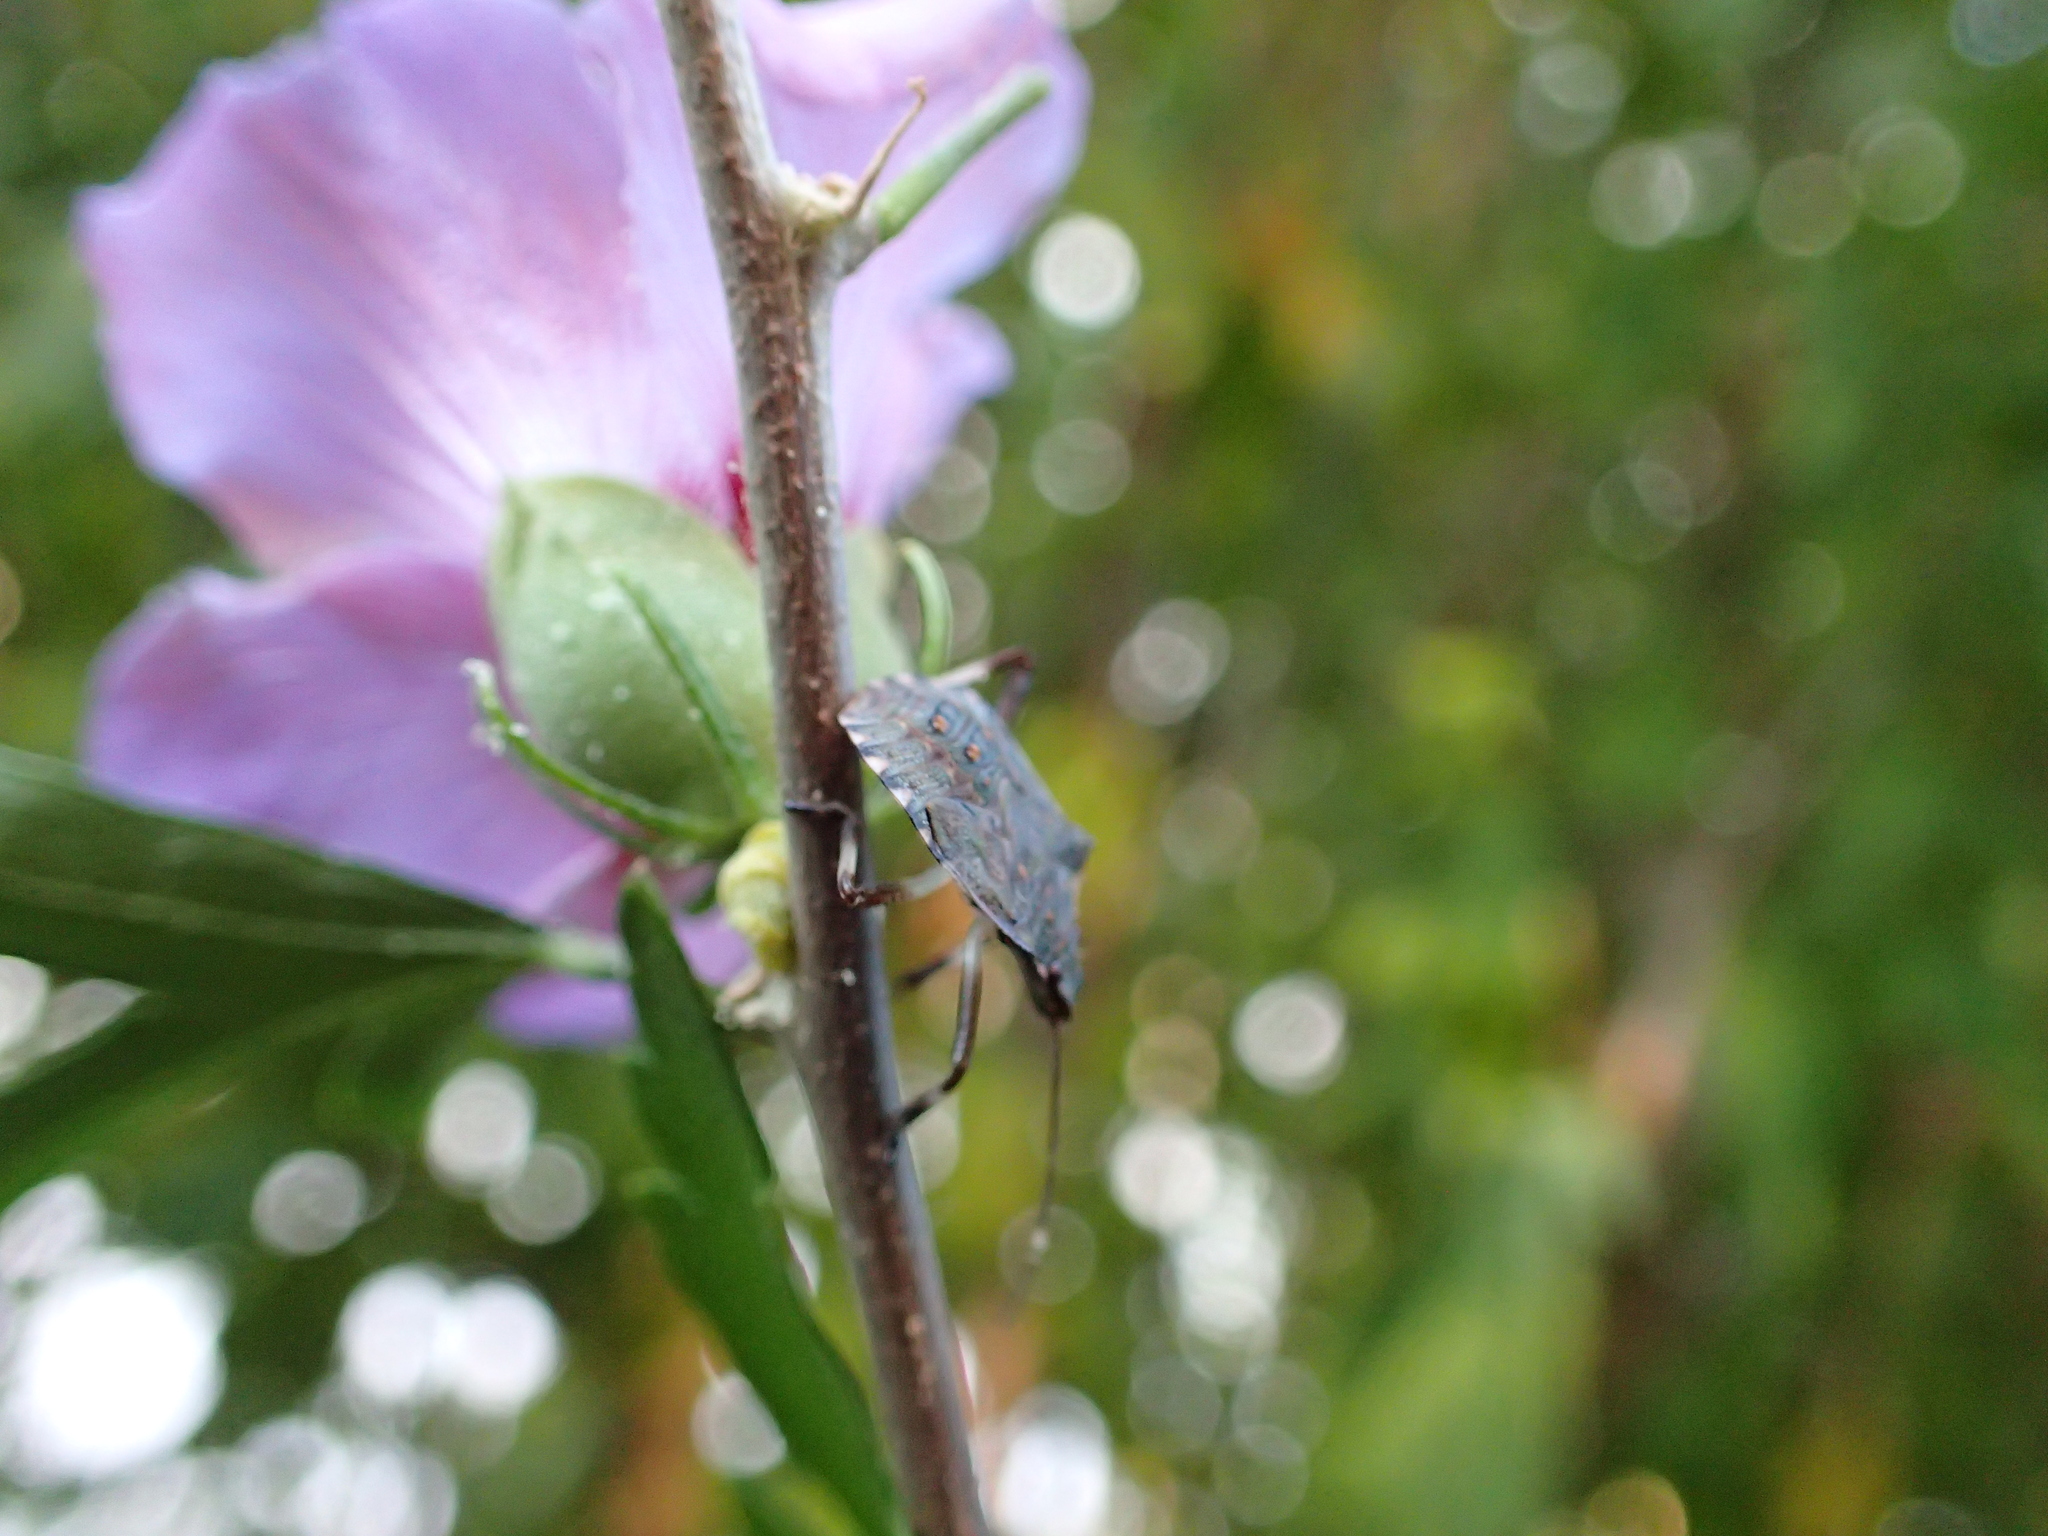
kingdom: Animalia
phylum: Arthropoda
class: Insecta
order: Hemiptera
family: Pentatomidae
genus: Halyomorpha
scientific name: Halyomorpha halys
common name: Brown marmorated stink bug
